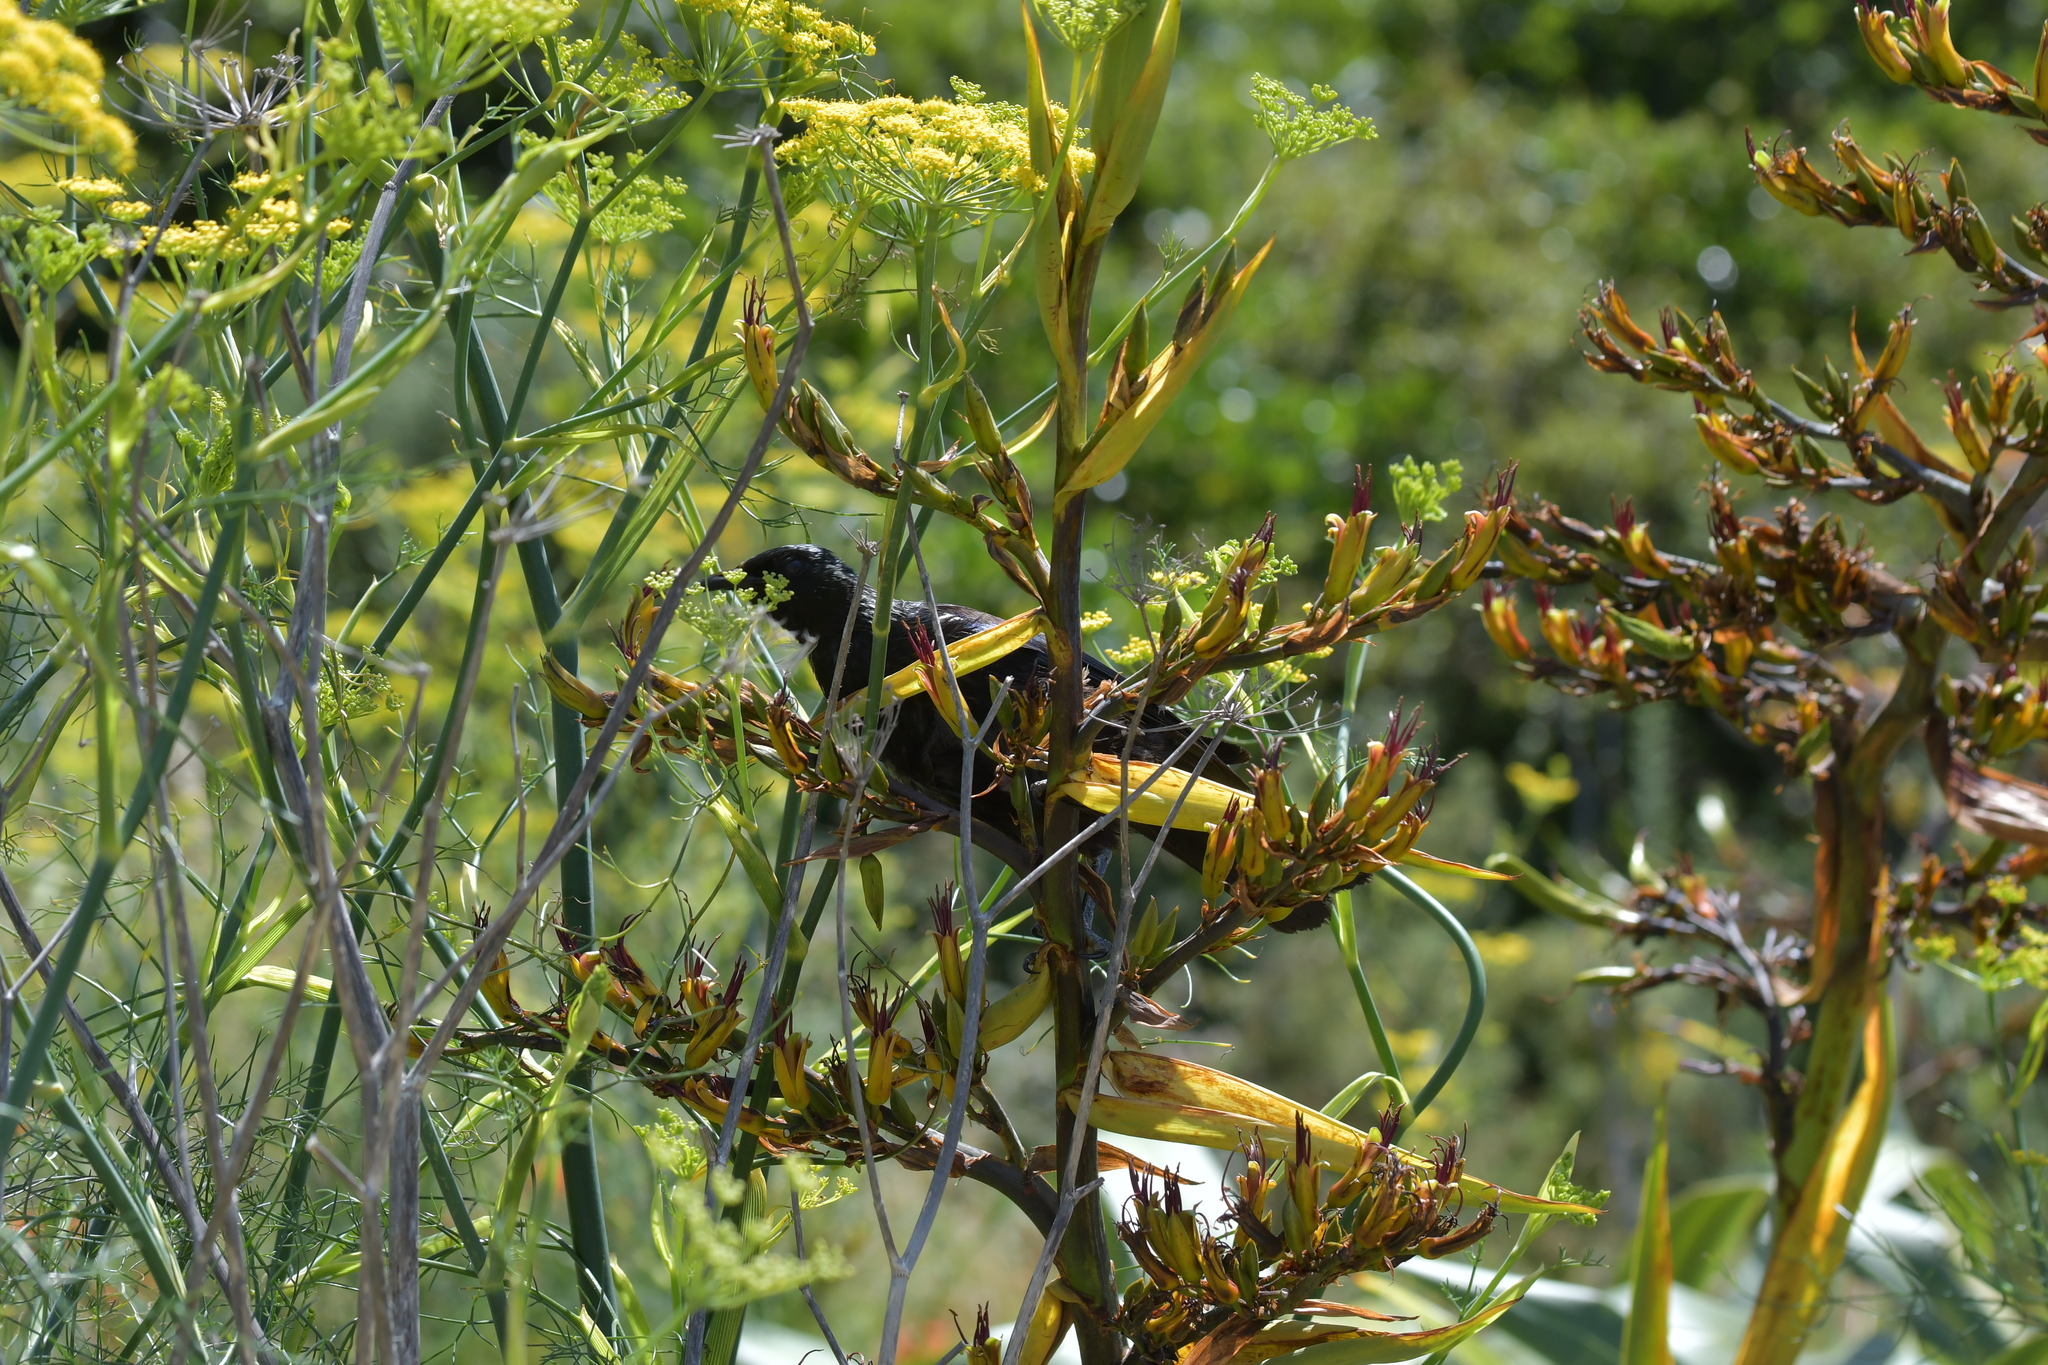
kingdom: Animalia
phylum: Chordata
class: Aves
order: Passeriformes
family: Meliphagidae
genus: Prosthemadera
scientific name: Prosthemadera novaeseelandiae
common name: Tui
